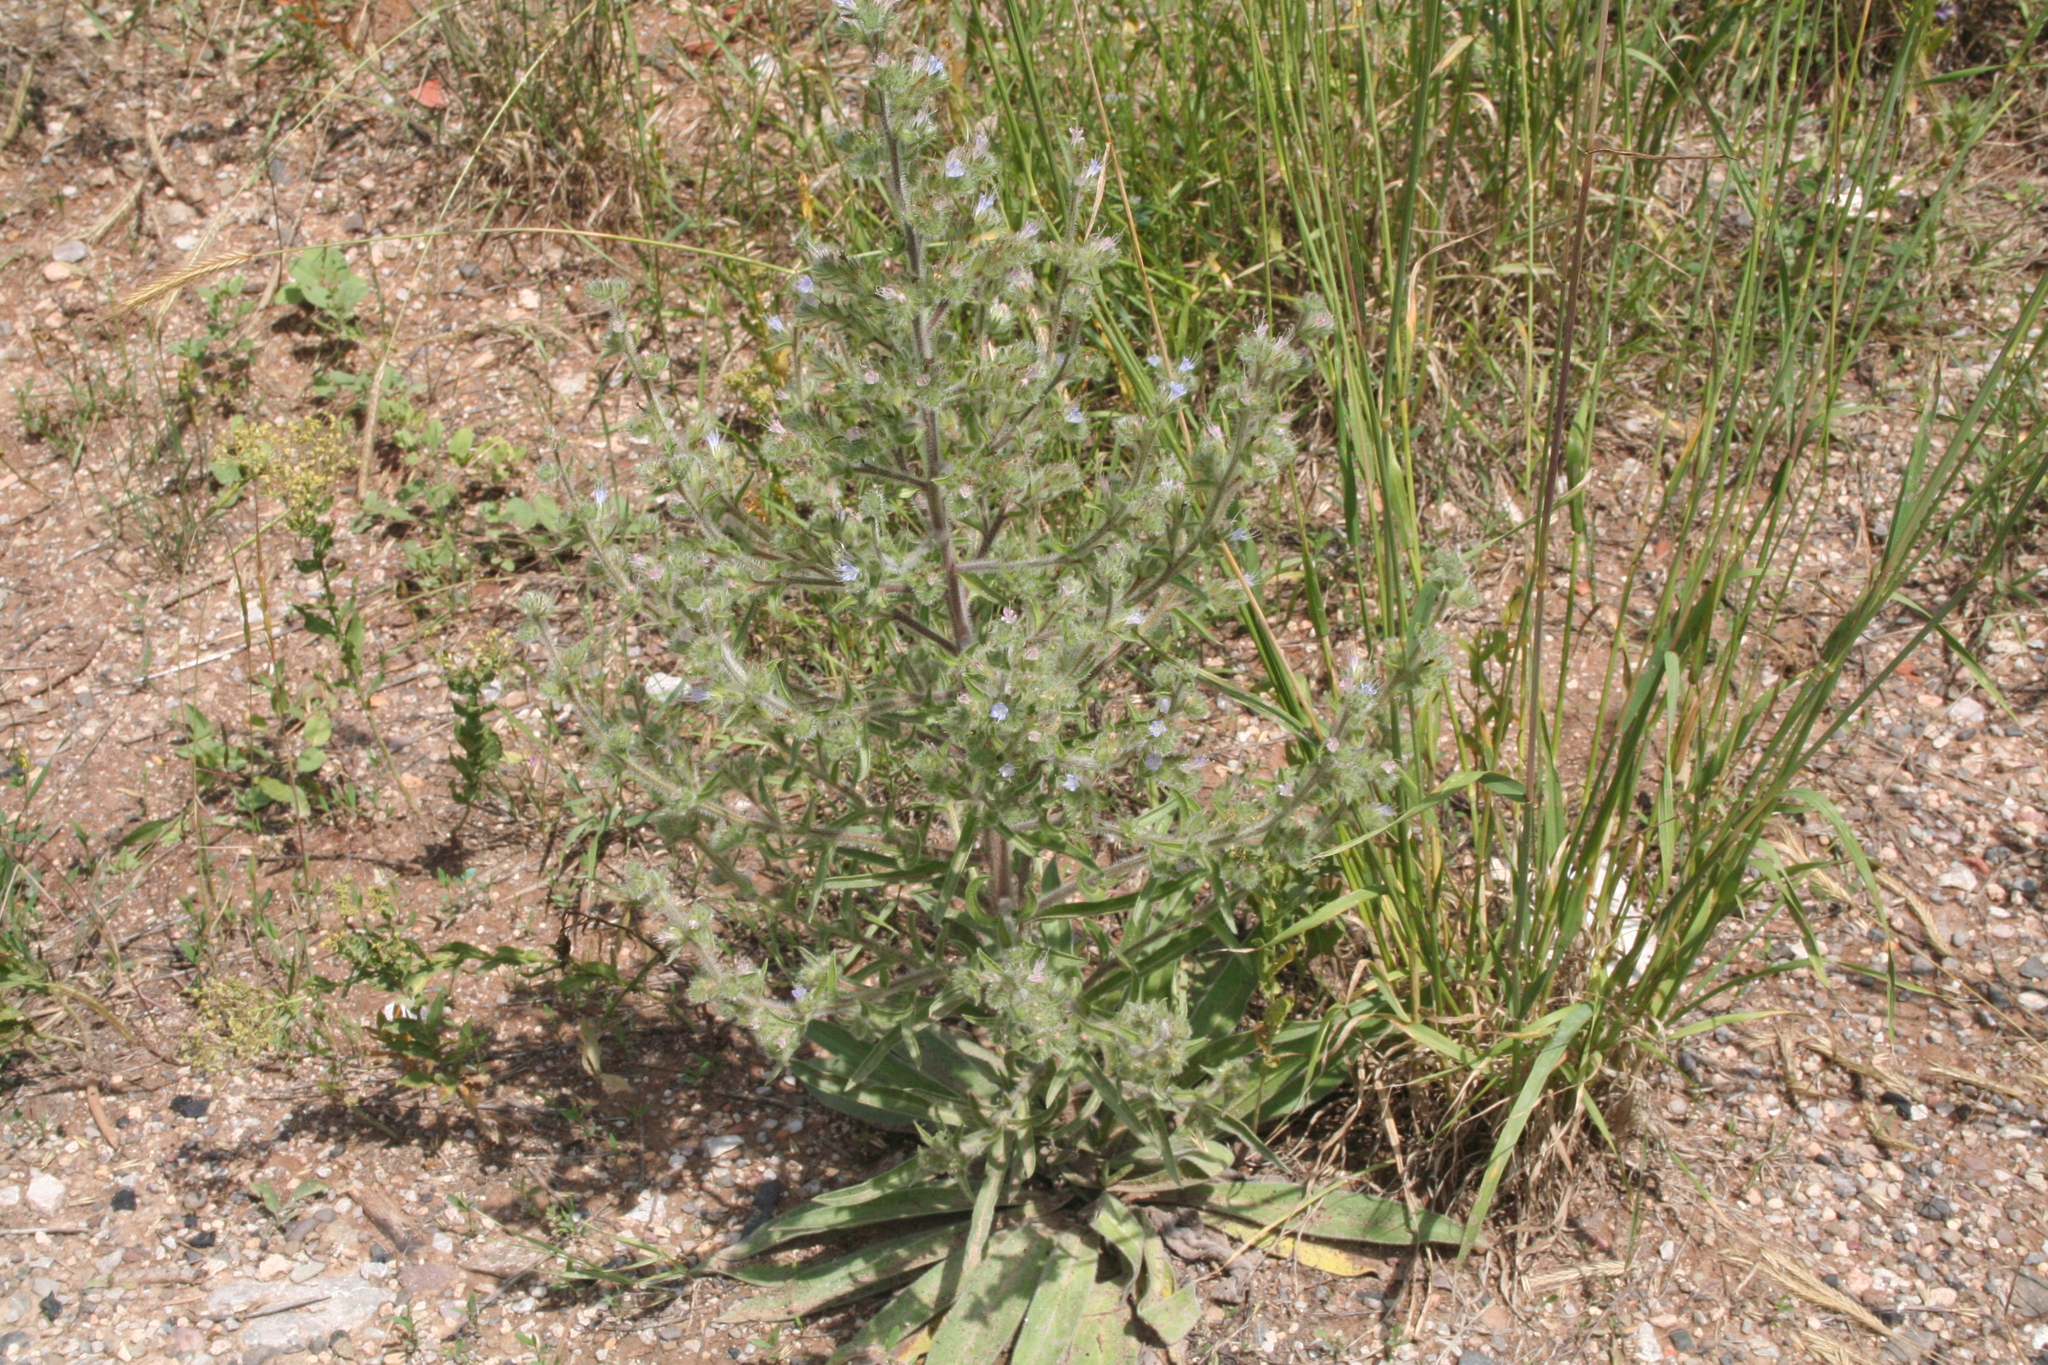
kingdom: Plantae
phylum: Tracheophyta
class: Magnoliopsida
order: Boraginales
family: Boraginaceae
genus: Echium
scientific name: Echium italicum
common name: Italian viper's bugloss
